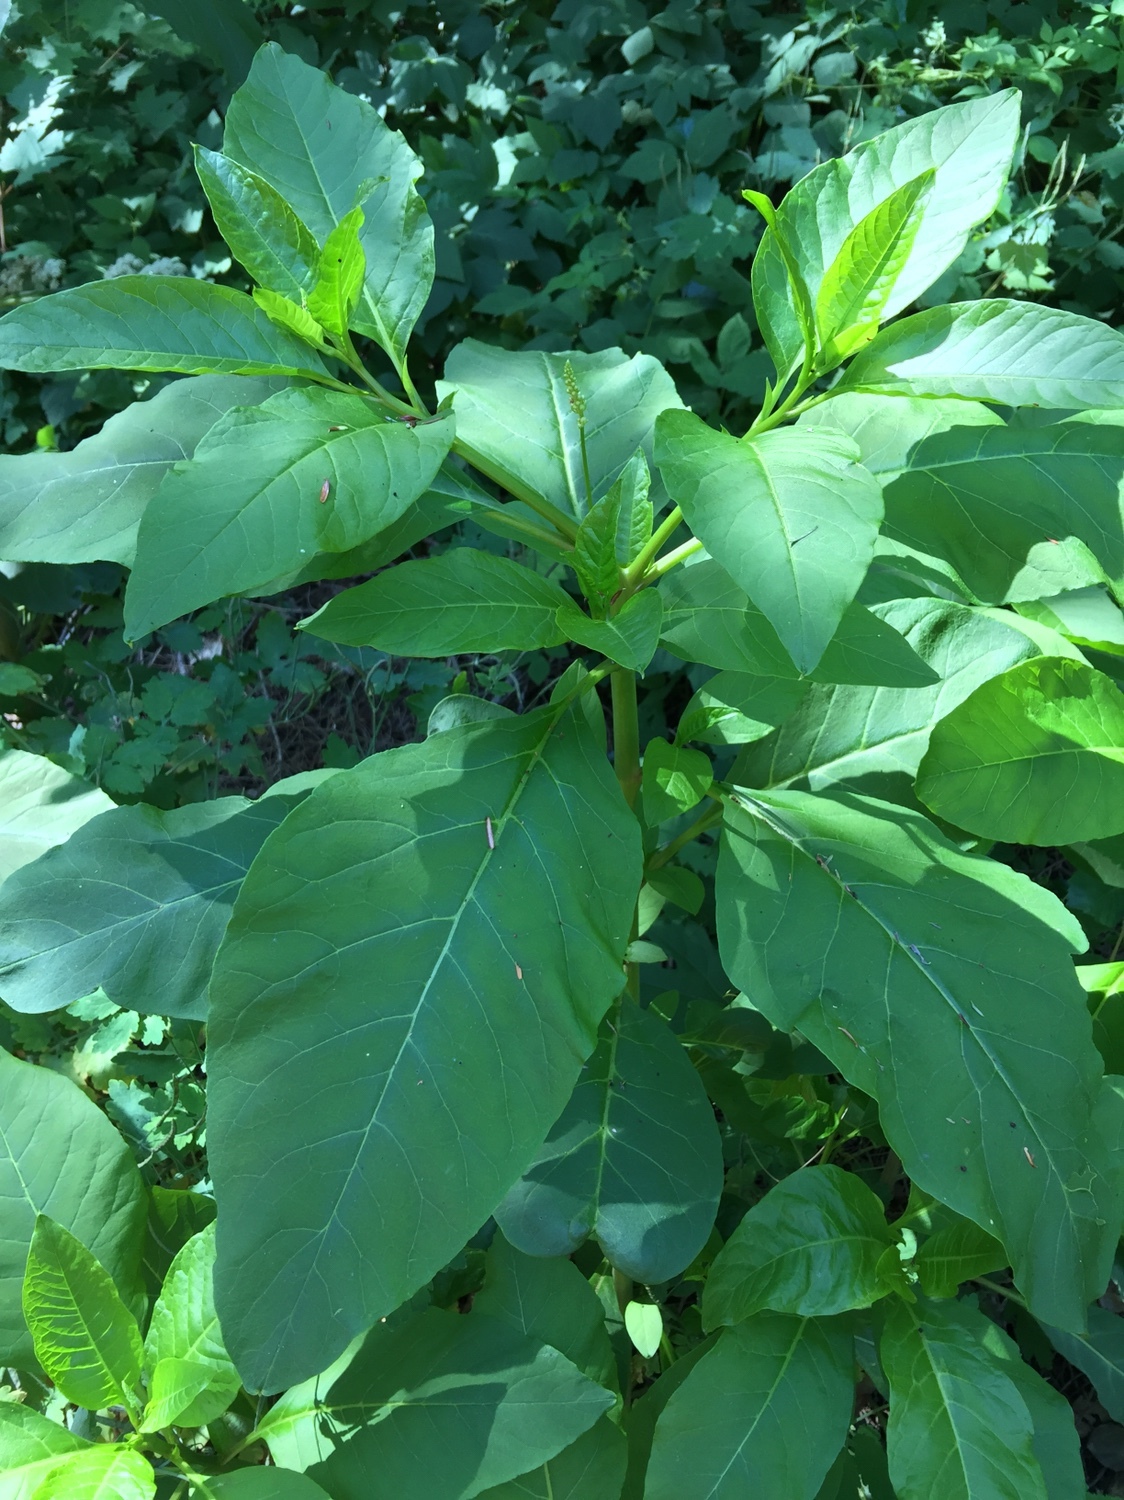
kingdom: Plantae
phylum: Tracheophyta
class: Magnoliopsida
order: Caryophyllales
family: Phytolaccaceae
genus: Phytolacca
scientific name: Phytolacca americana
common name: American pokeweed
